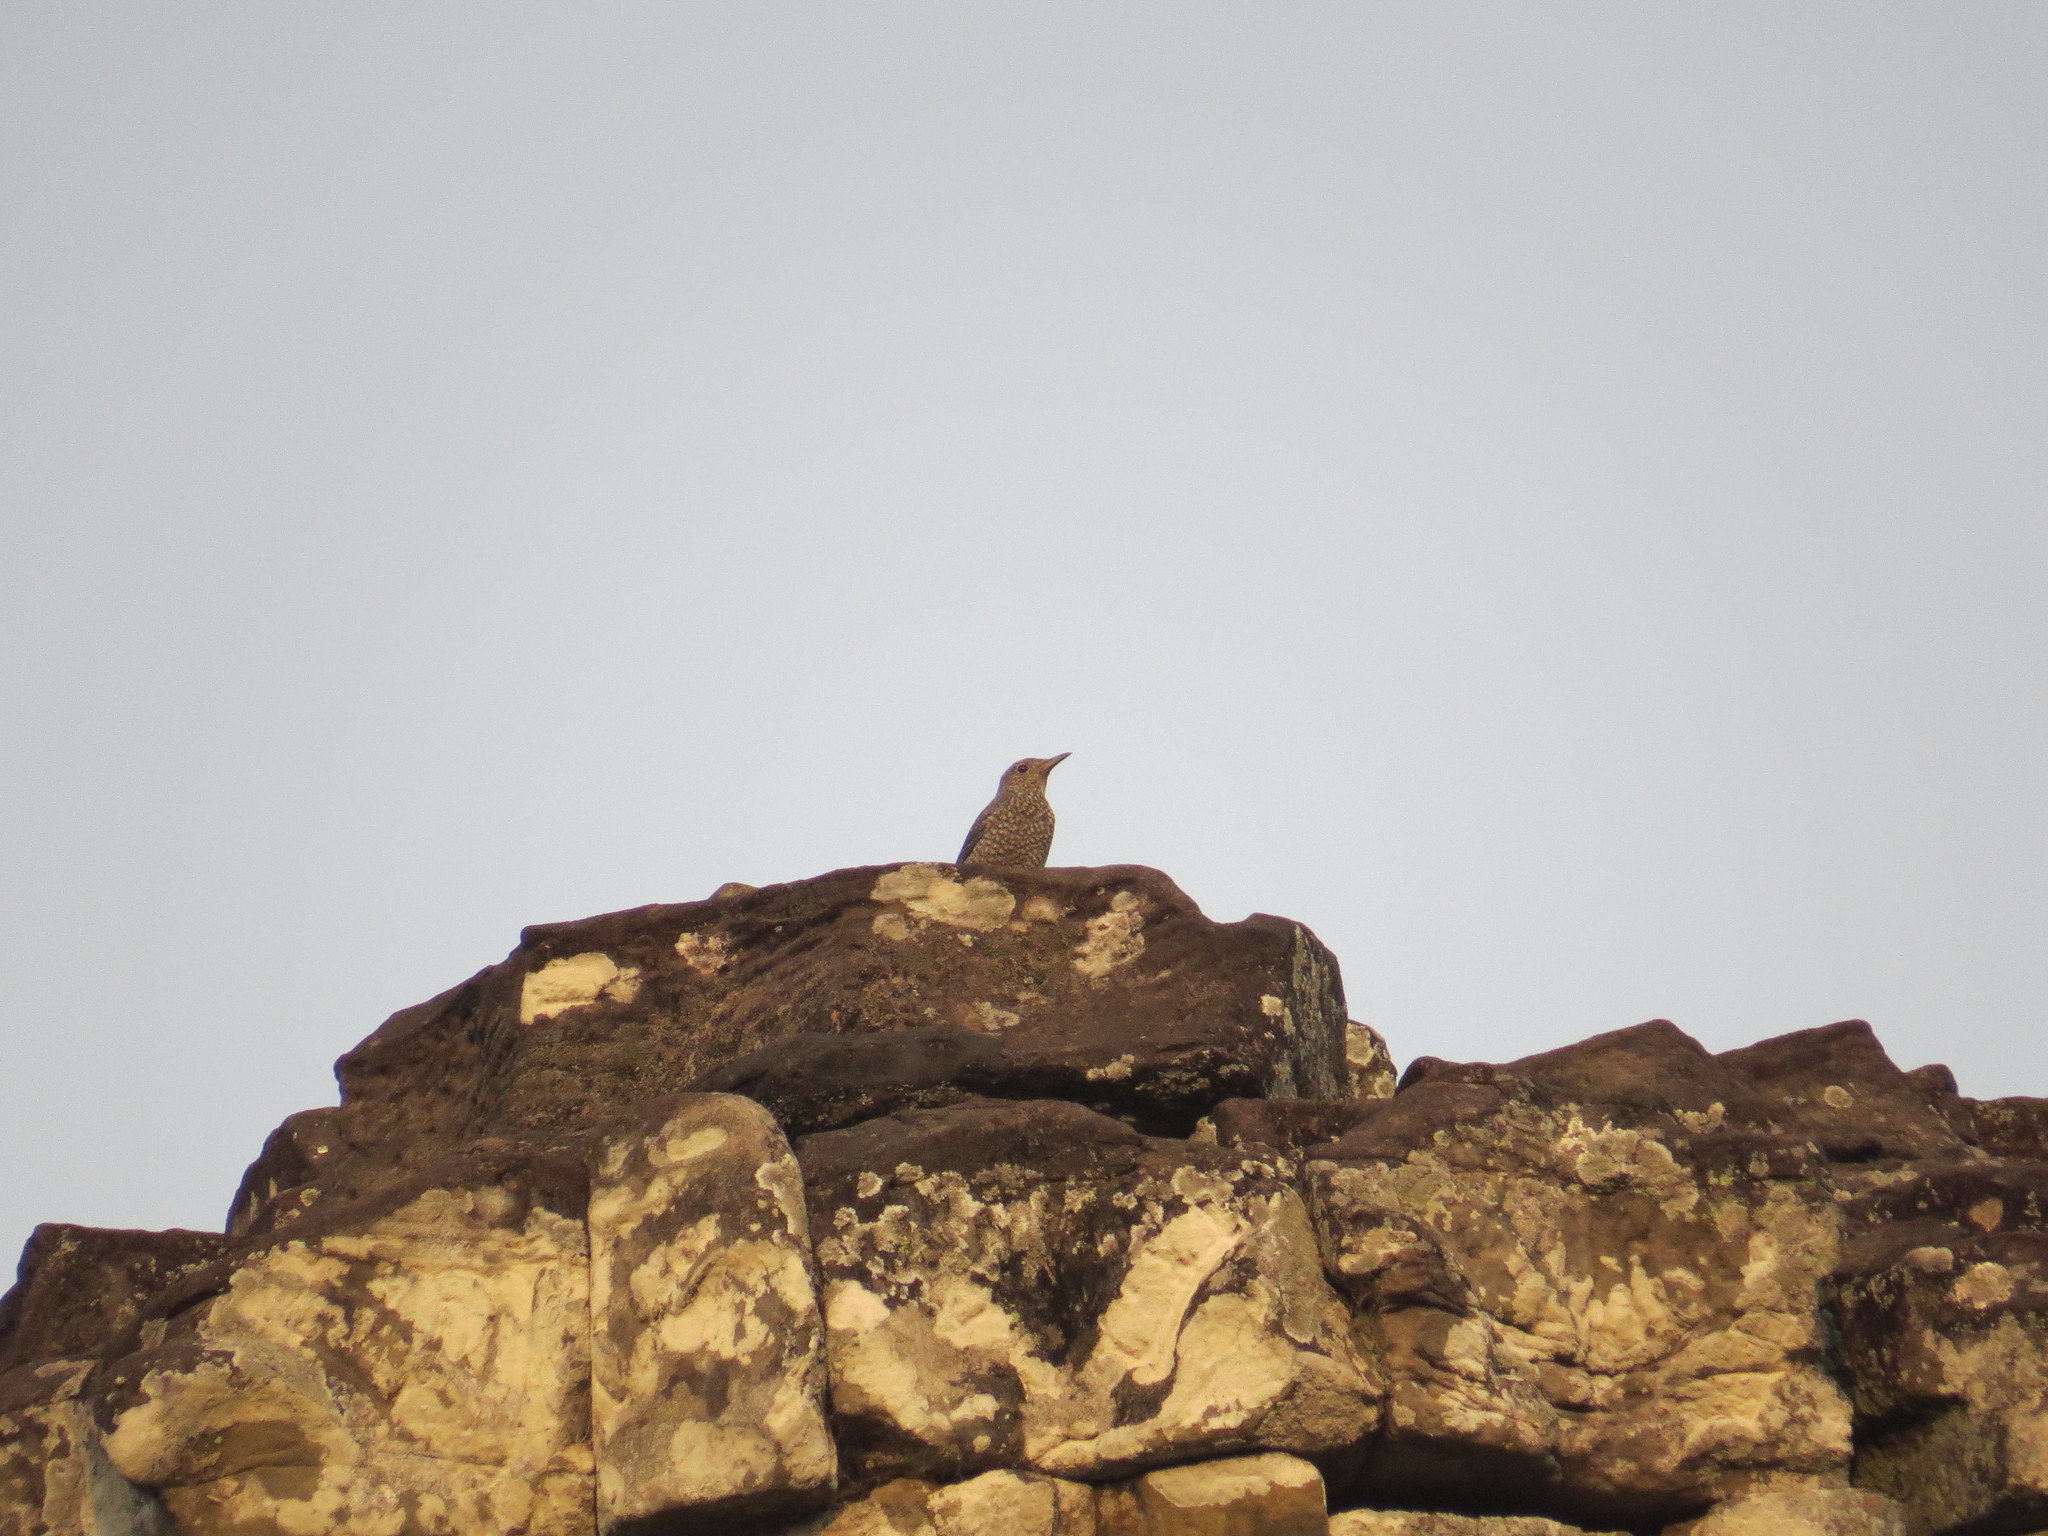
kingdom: Animalia
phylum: Chordata
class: Aves
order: Passeriformes
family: Muscicapidae
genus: Monticola
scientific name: Monticola solitarius
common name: Blue rock thrush
